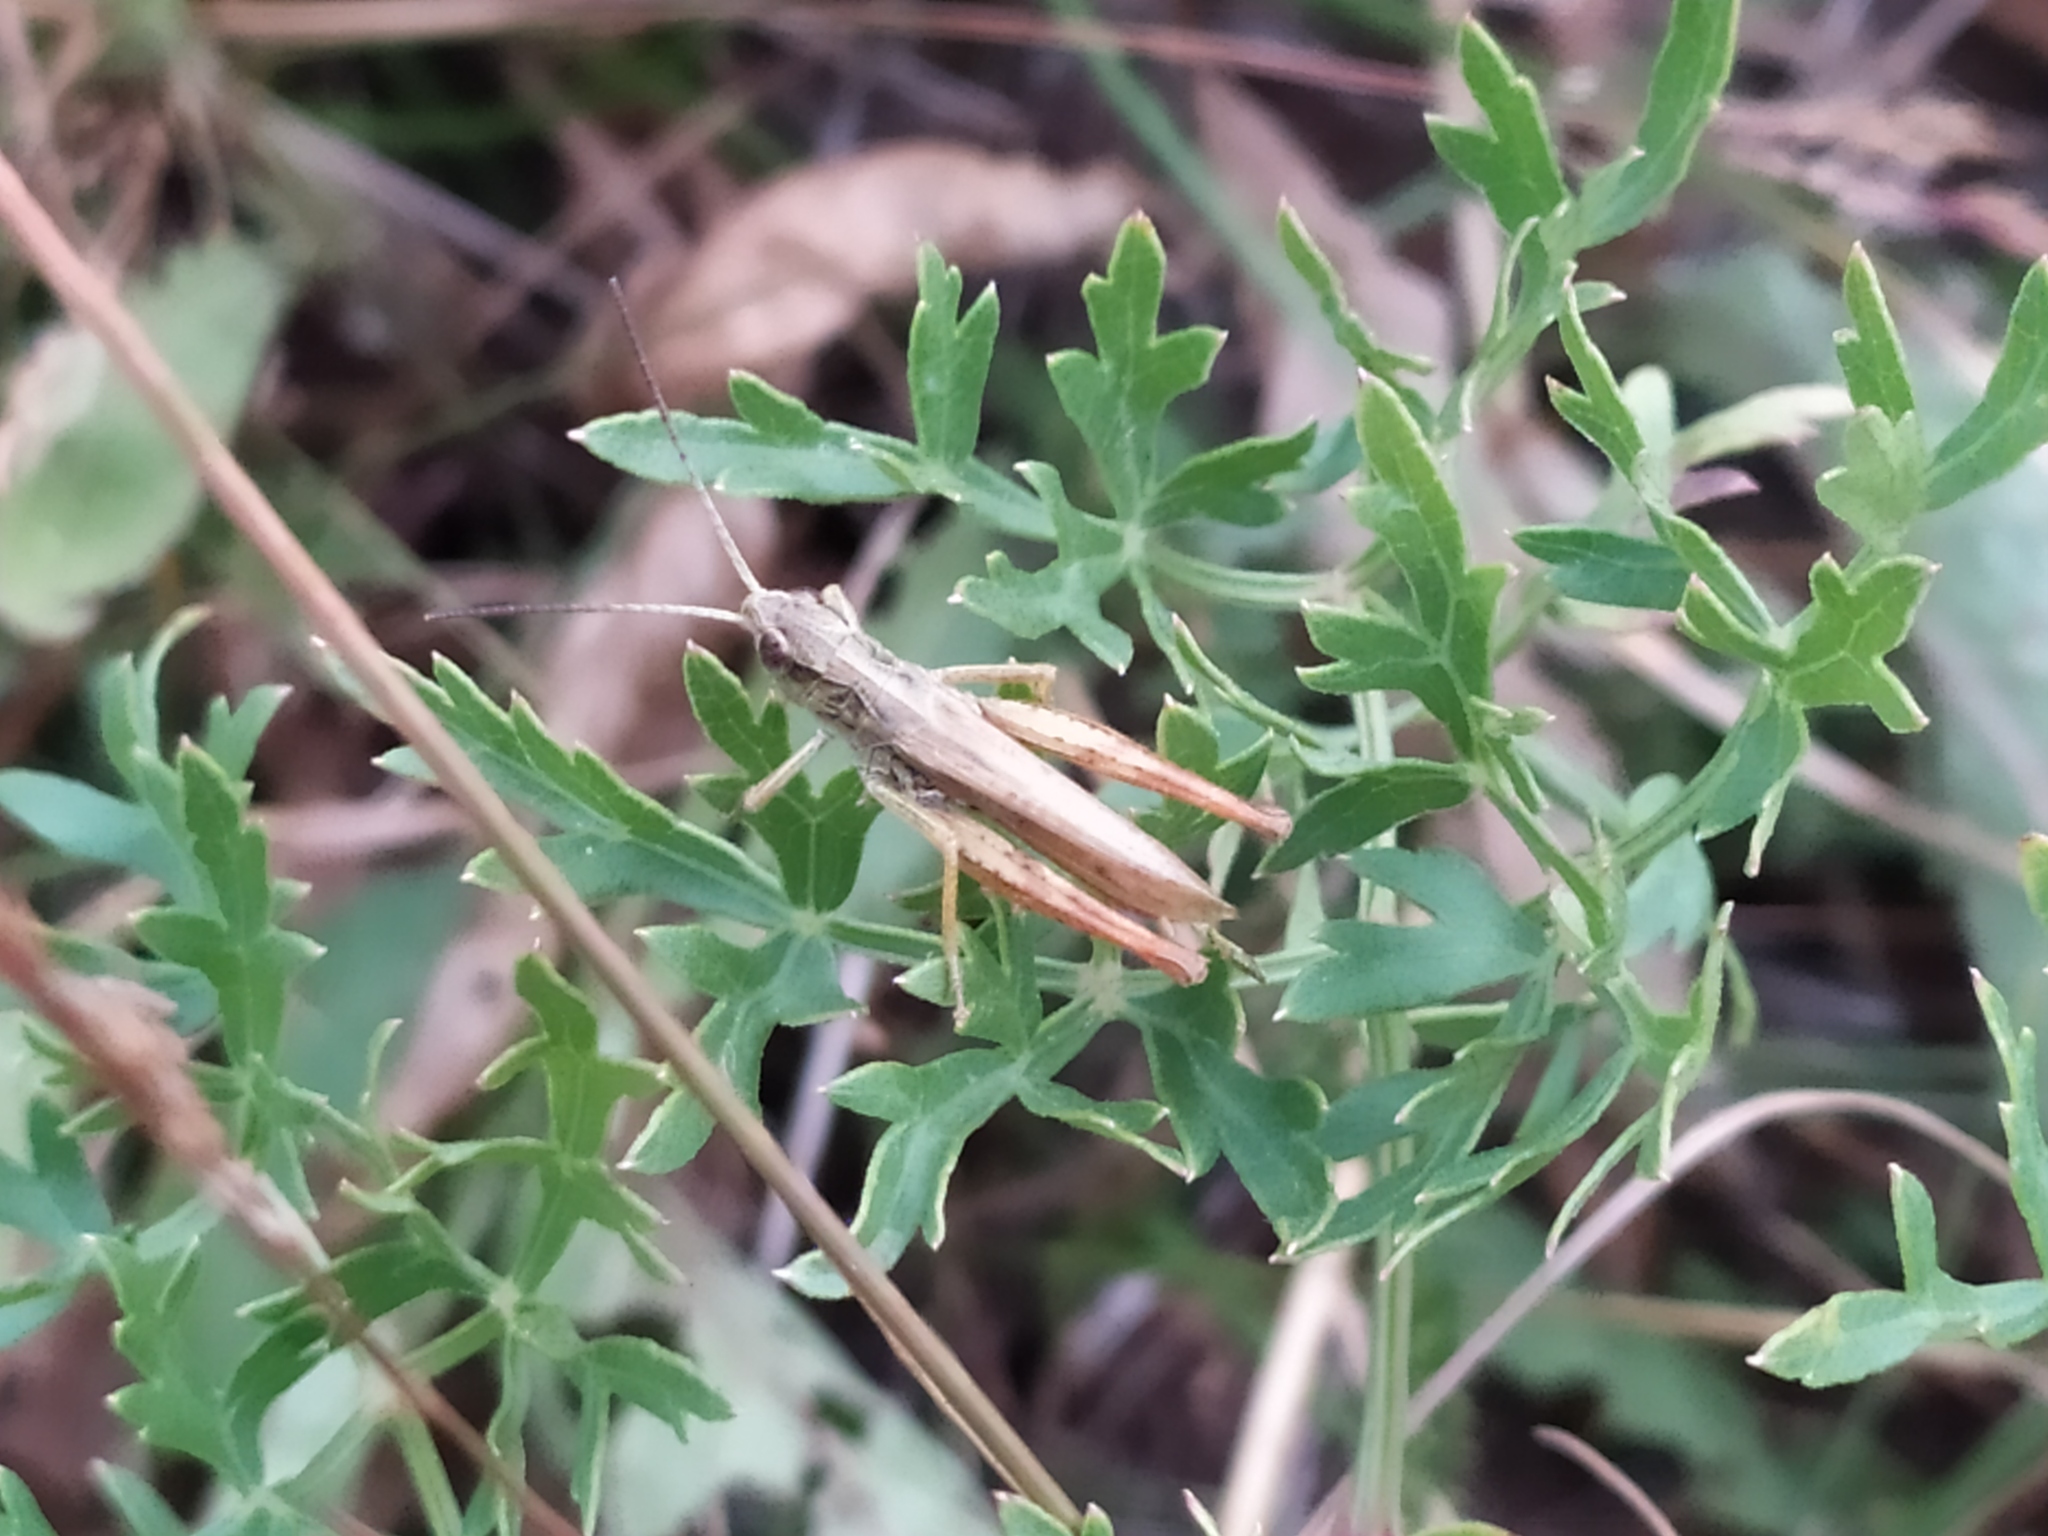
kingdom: Animalia
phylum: Arthropoda
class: Insecta
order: Orthoptera
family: Acrididae
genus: Chorthippus
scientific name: Chorthippus apricarius
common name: Upland field grasshopper
